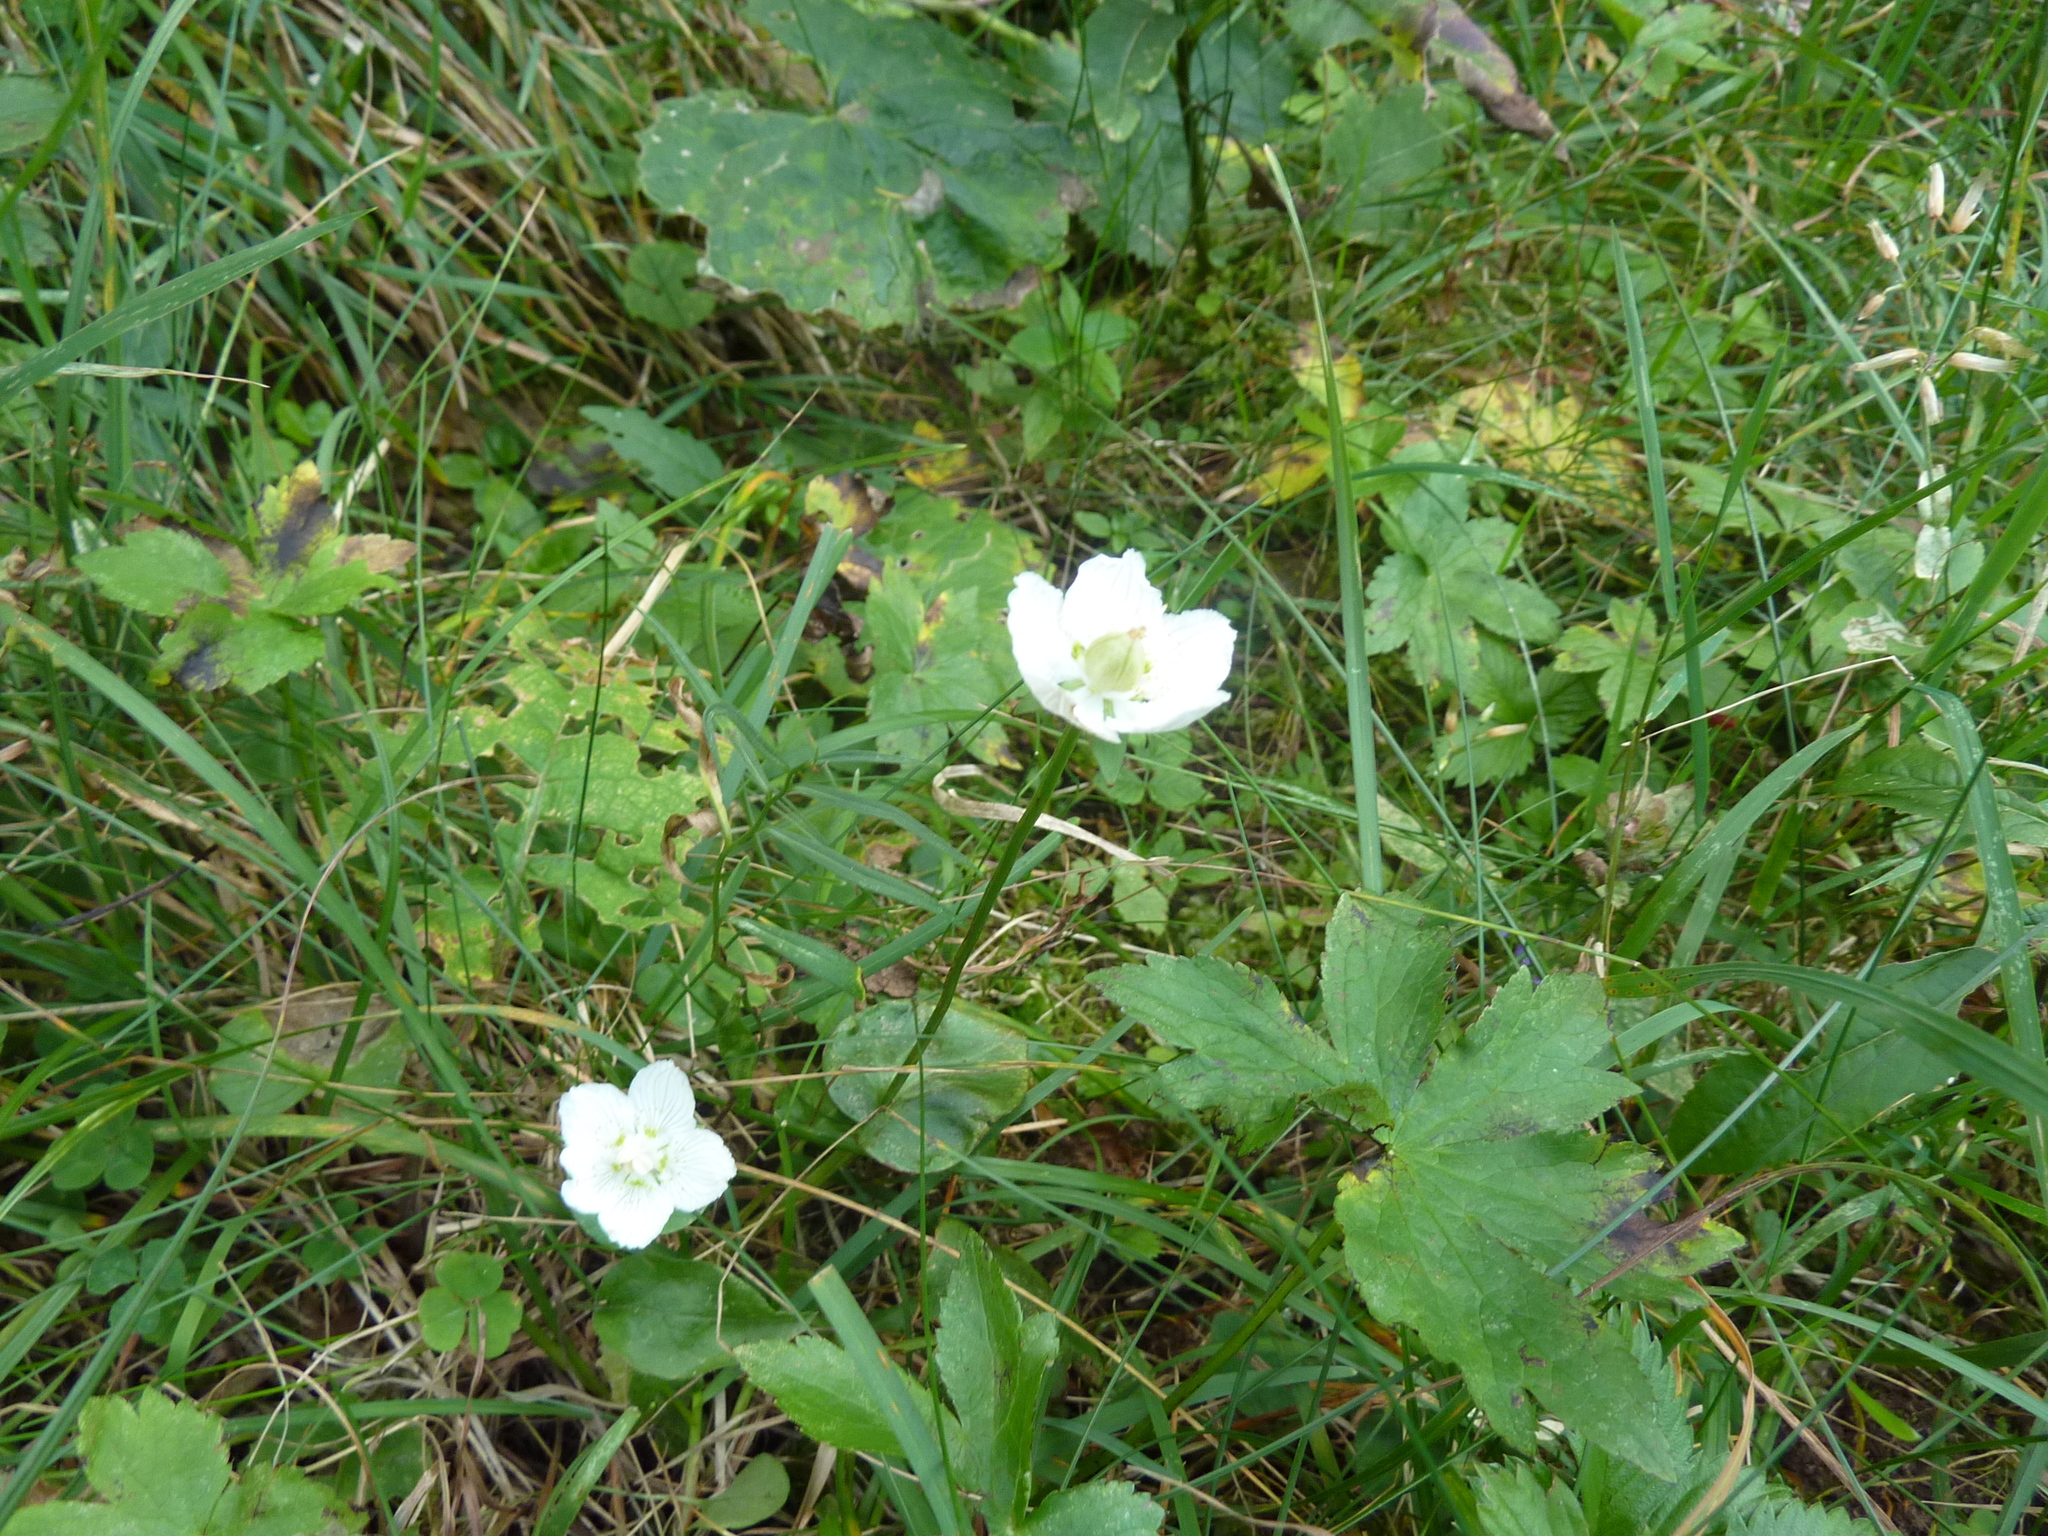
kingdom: Plantae
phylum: Tracheophyta
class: Magnoliopsida
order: Celastrales
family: Parnassiaceae
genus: Parnassia
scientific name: Parnassia palustris
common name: Grass-of-parnassus
